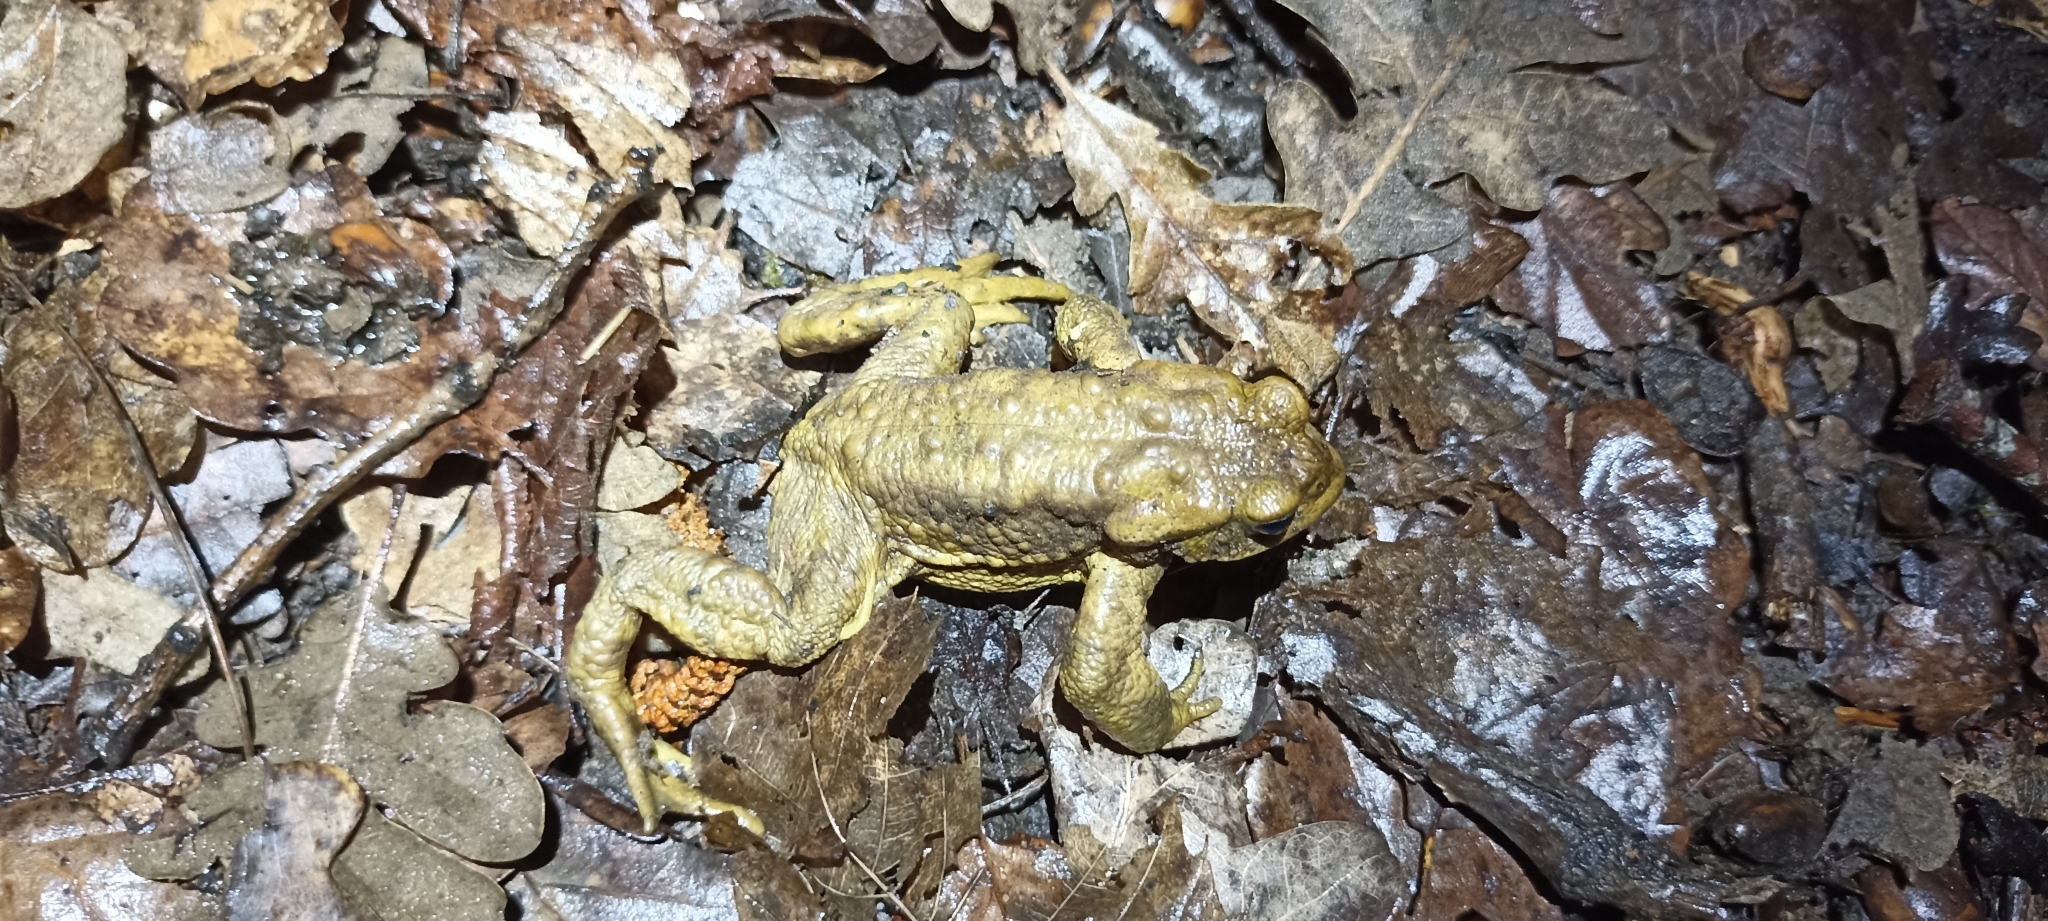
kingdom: Animalia
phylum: Chordata
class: Amphibia
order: Anura
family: Bufonidae
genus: Bufo
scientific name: Bufo spinosus
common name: Western common toad
